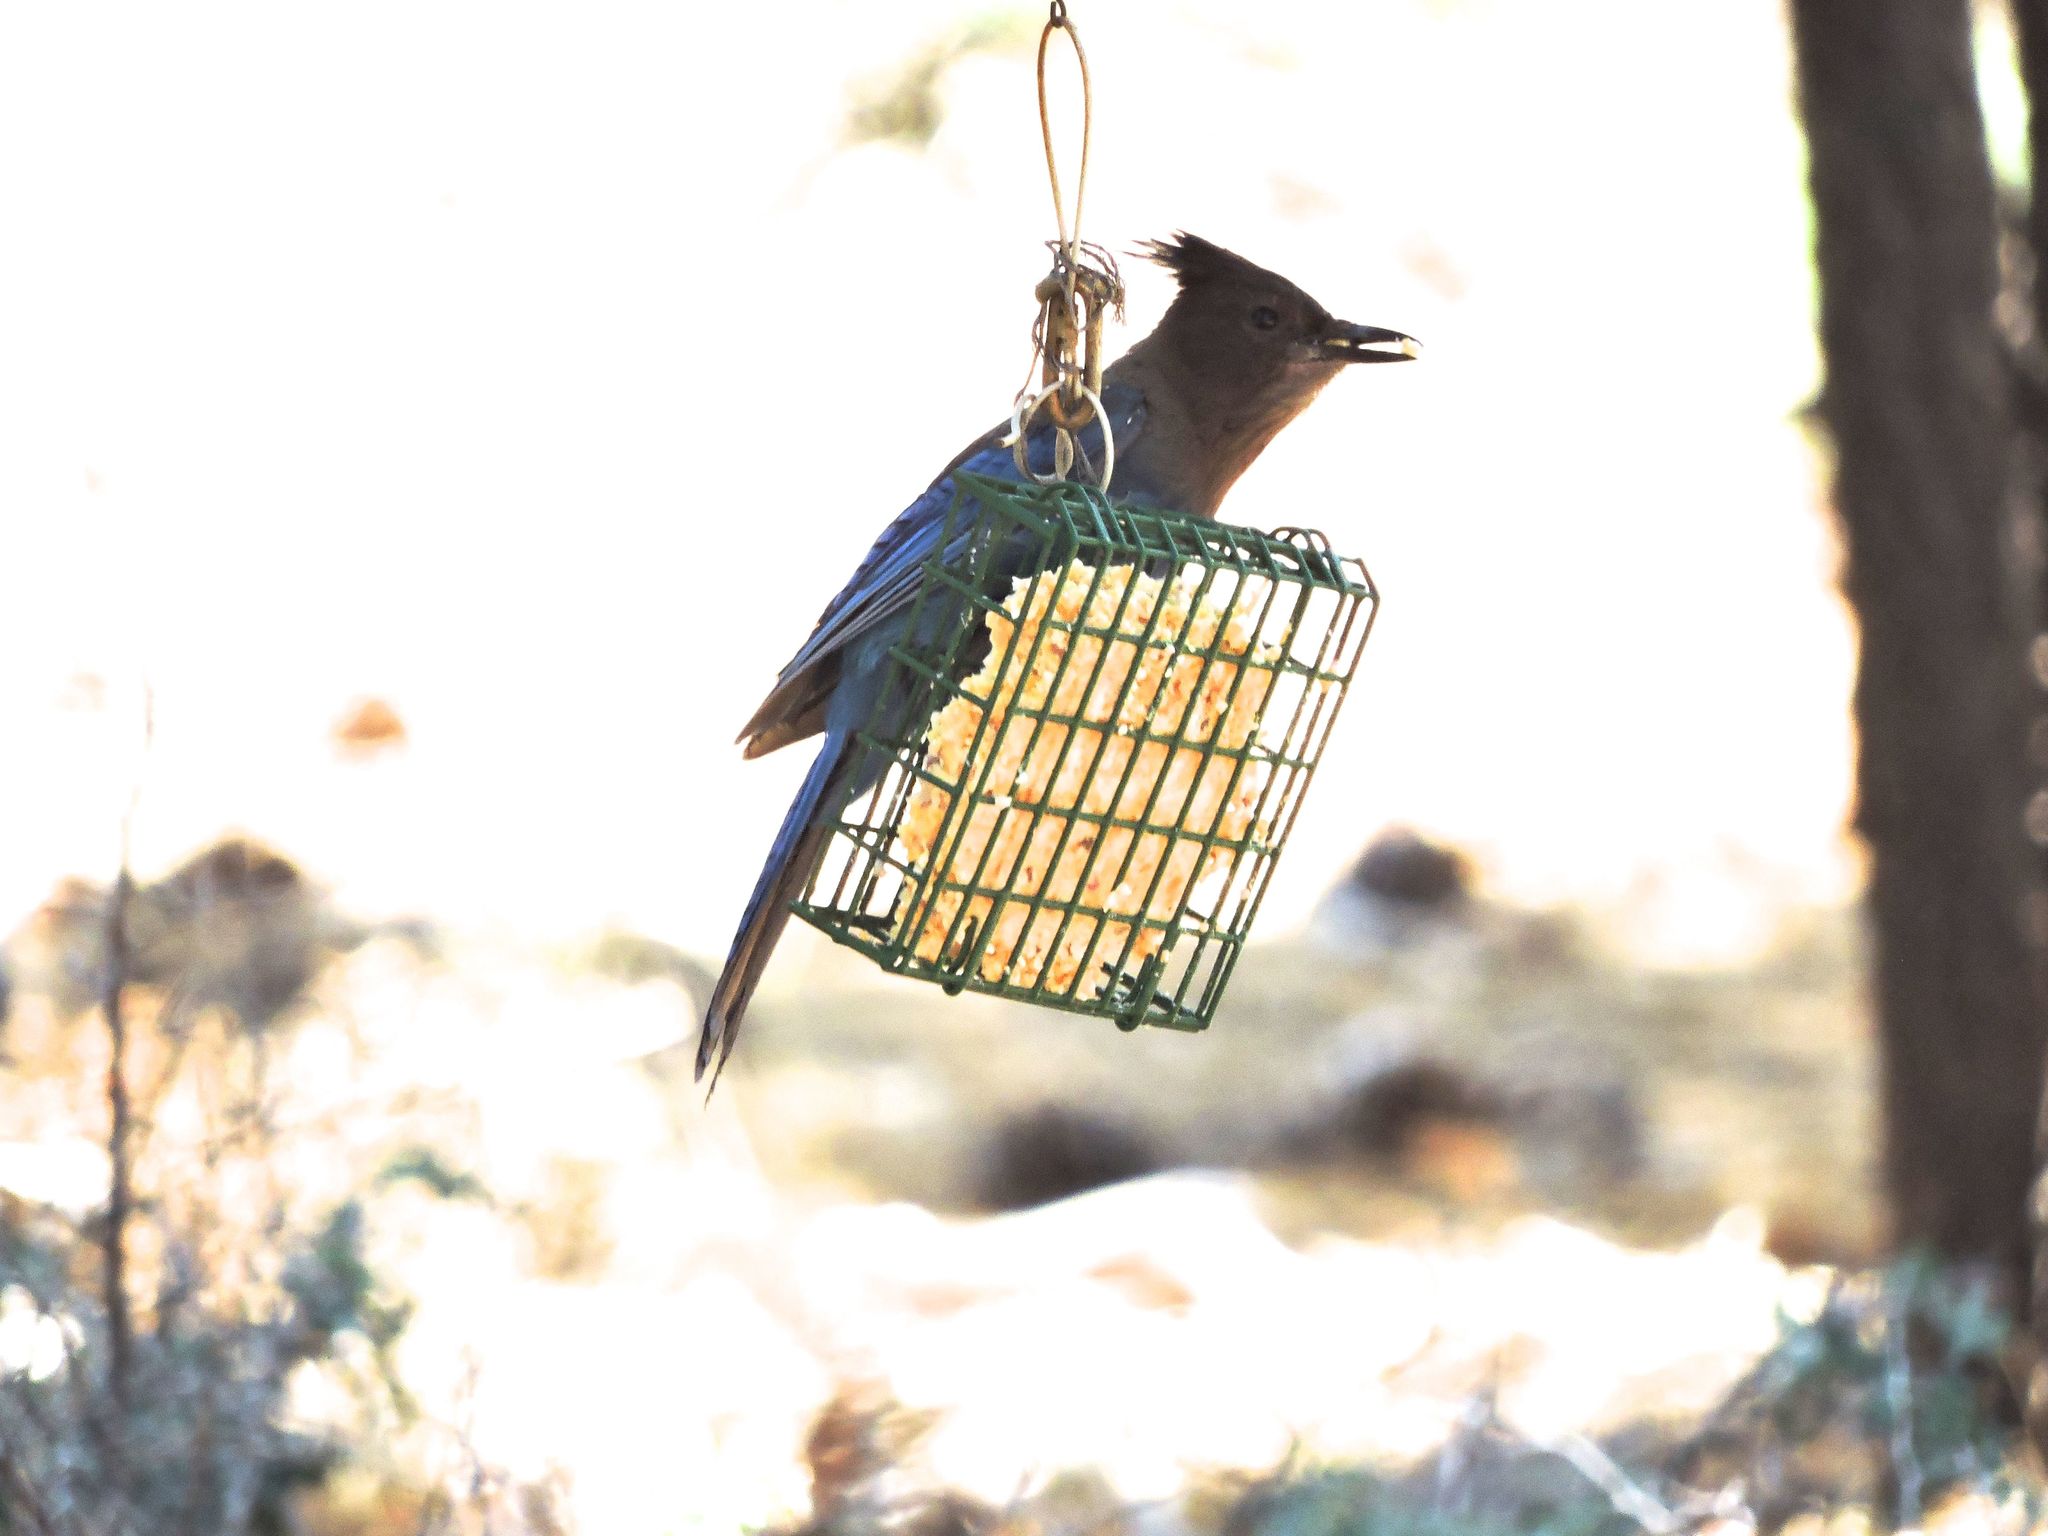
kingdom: Animalia
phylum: Chordata
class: Aves
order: Passeriformes
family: Corvidae
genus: Cyanocitta
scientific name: Cyanocitta stelleri
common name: Steller's jay
